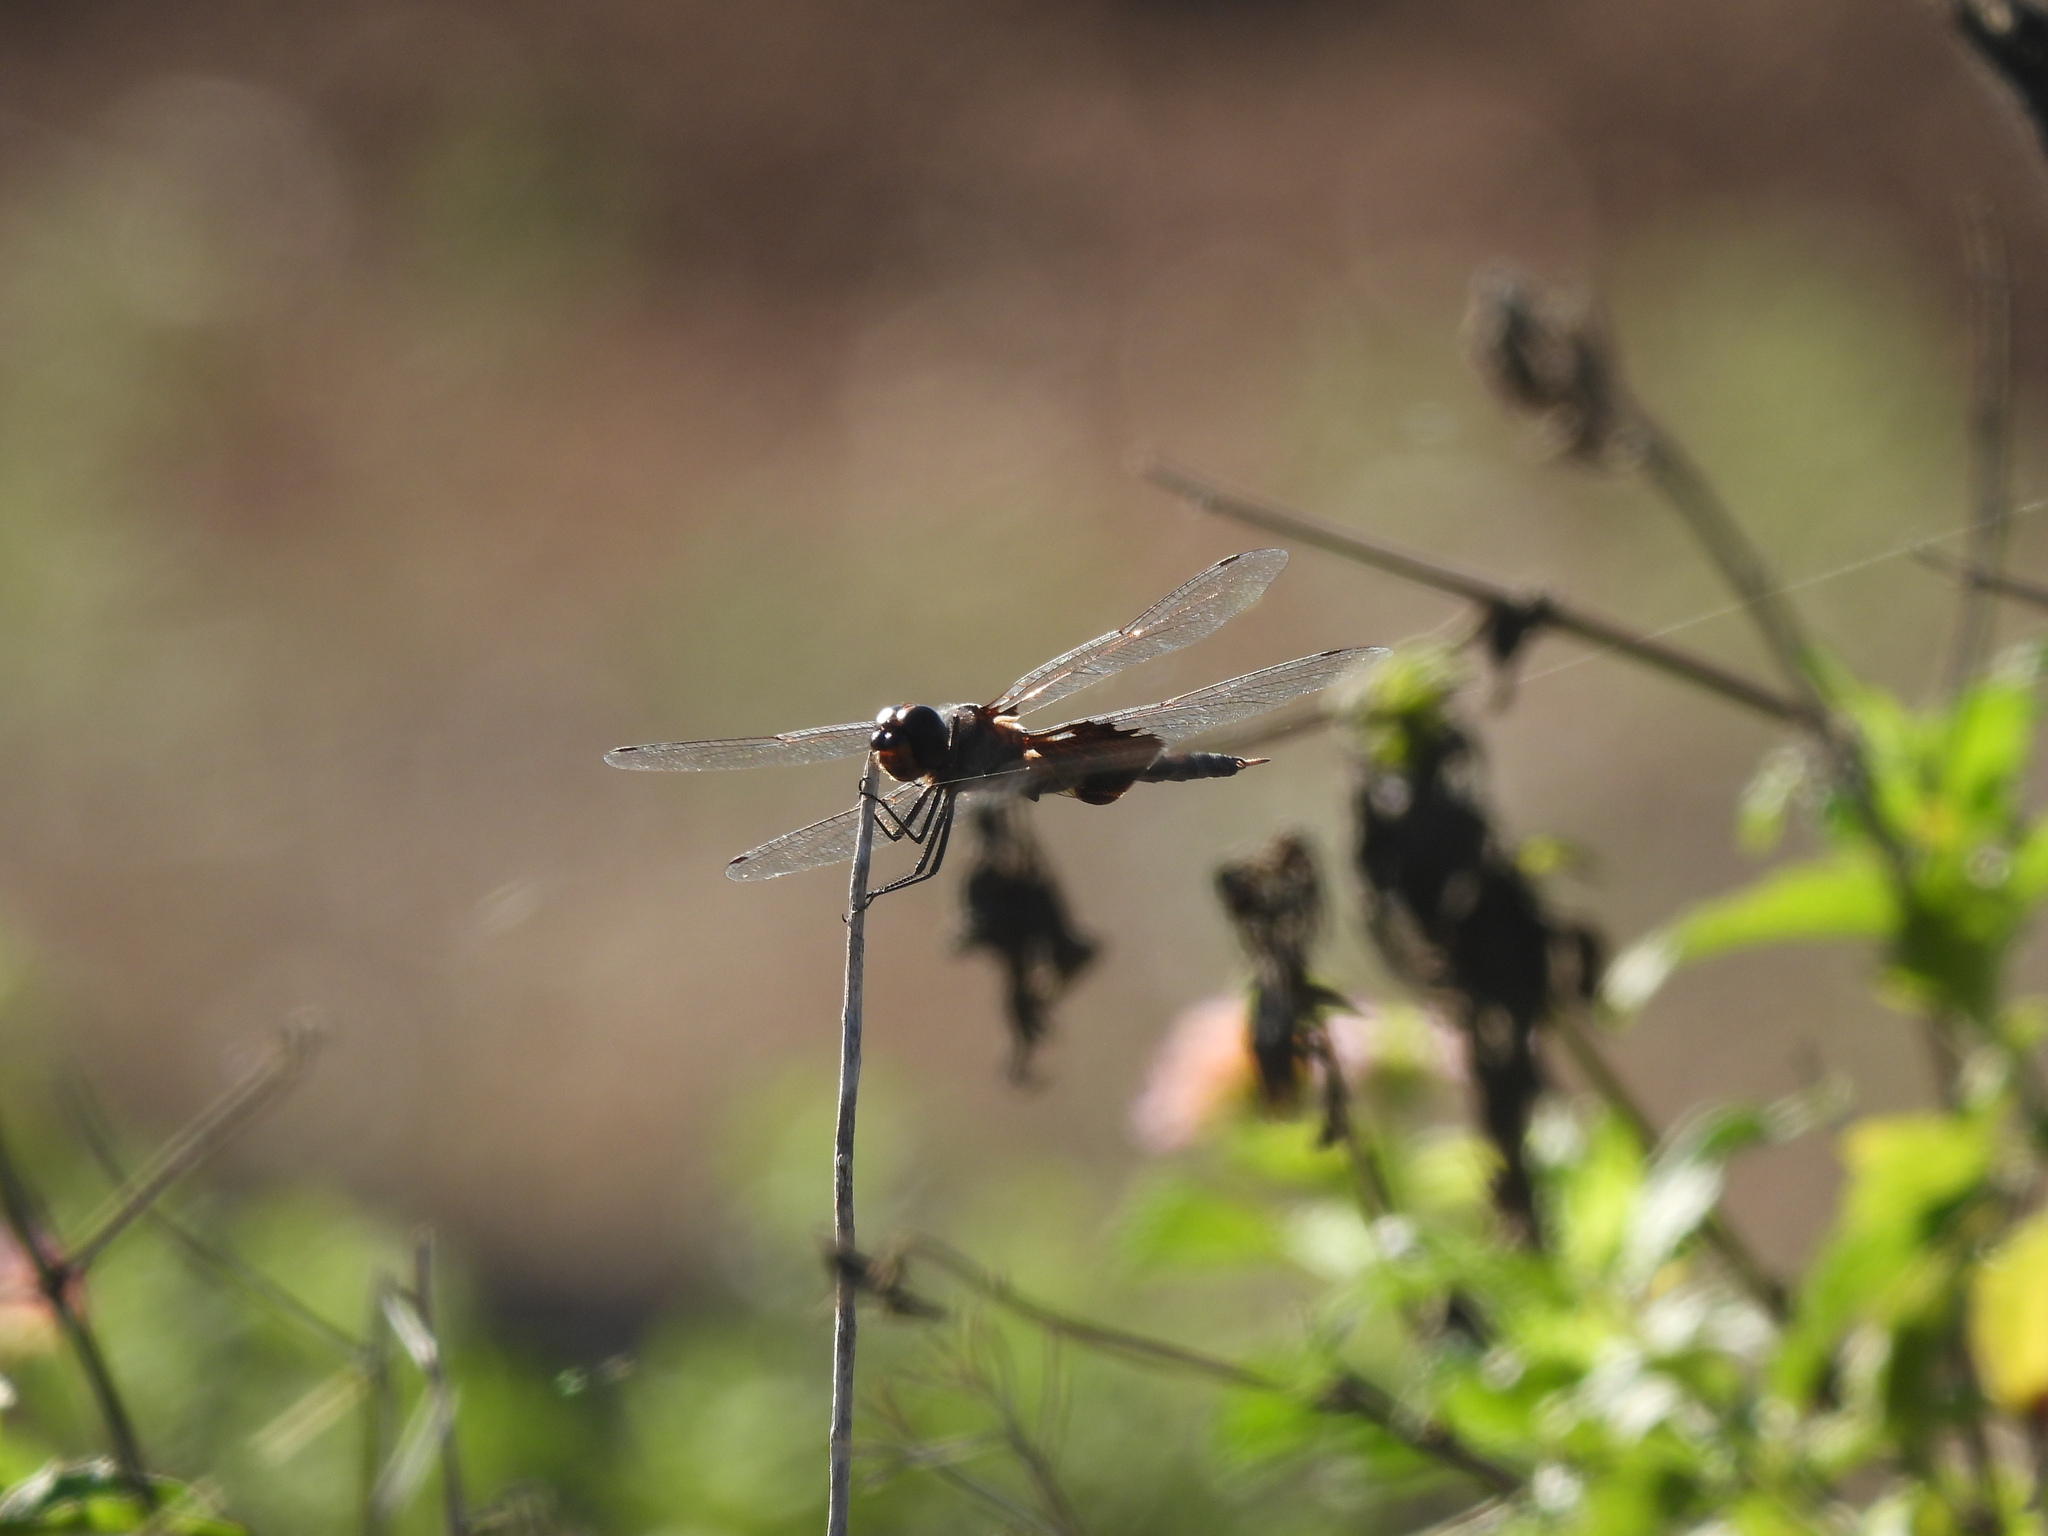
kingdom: Animalia
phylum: Arthropoda
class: Insecta
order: Odonata
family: Libellulidae
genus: Tramea
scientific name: Tramea insularis
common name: Antillean saddlebags
